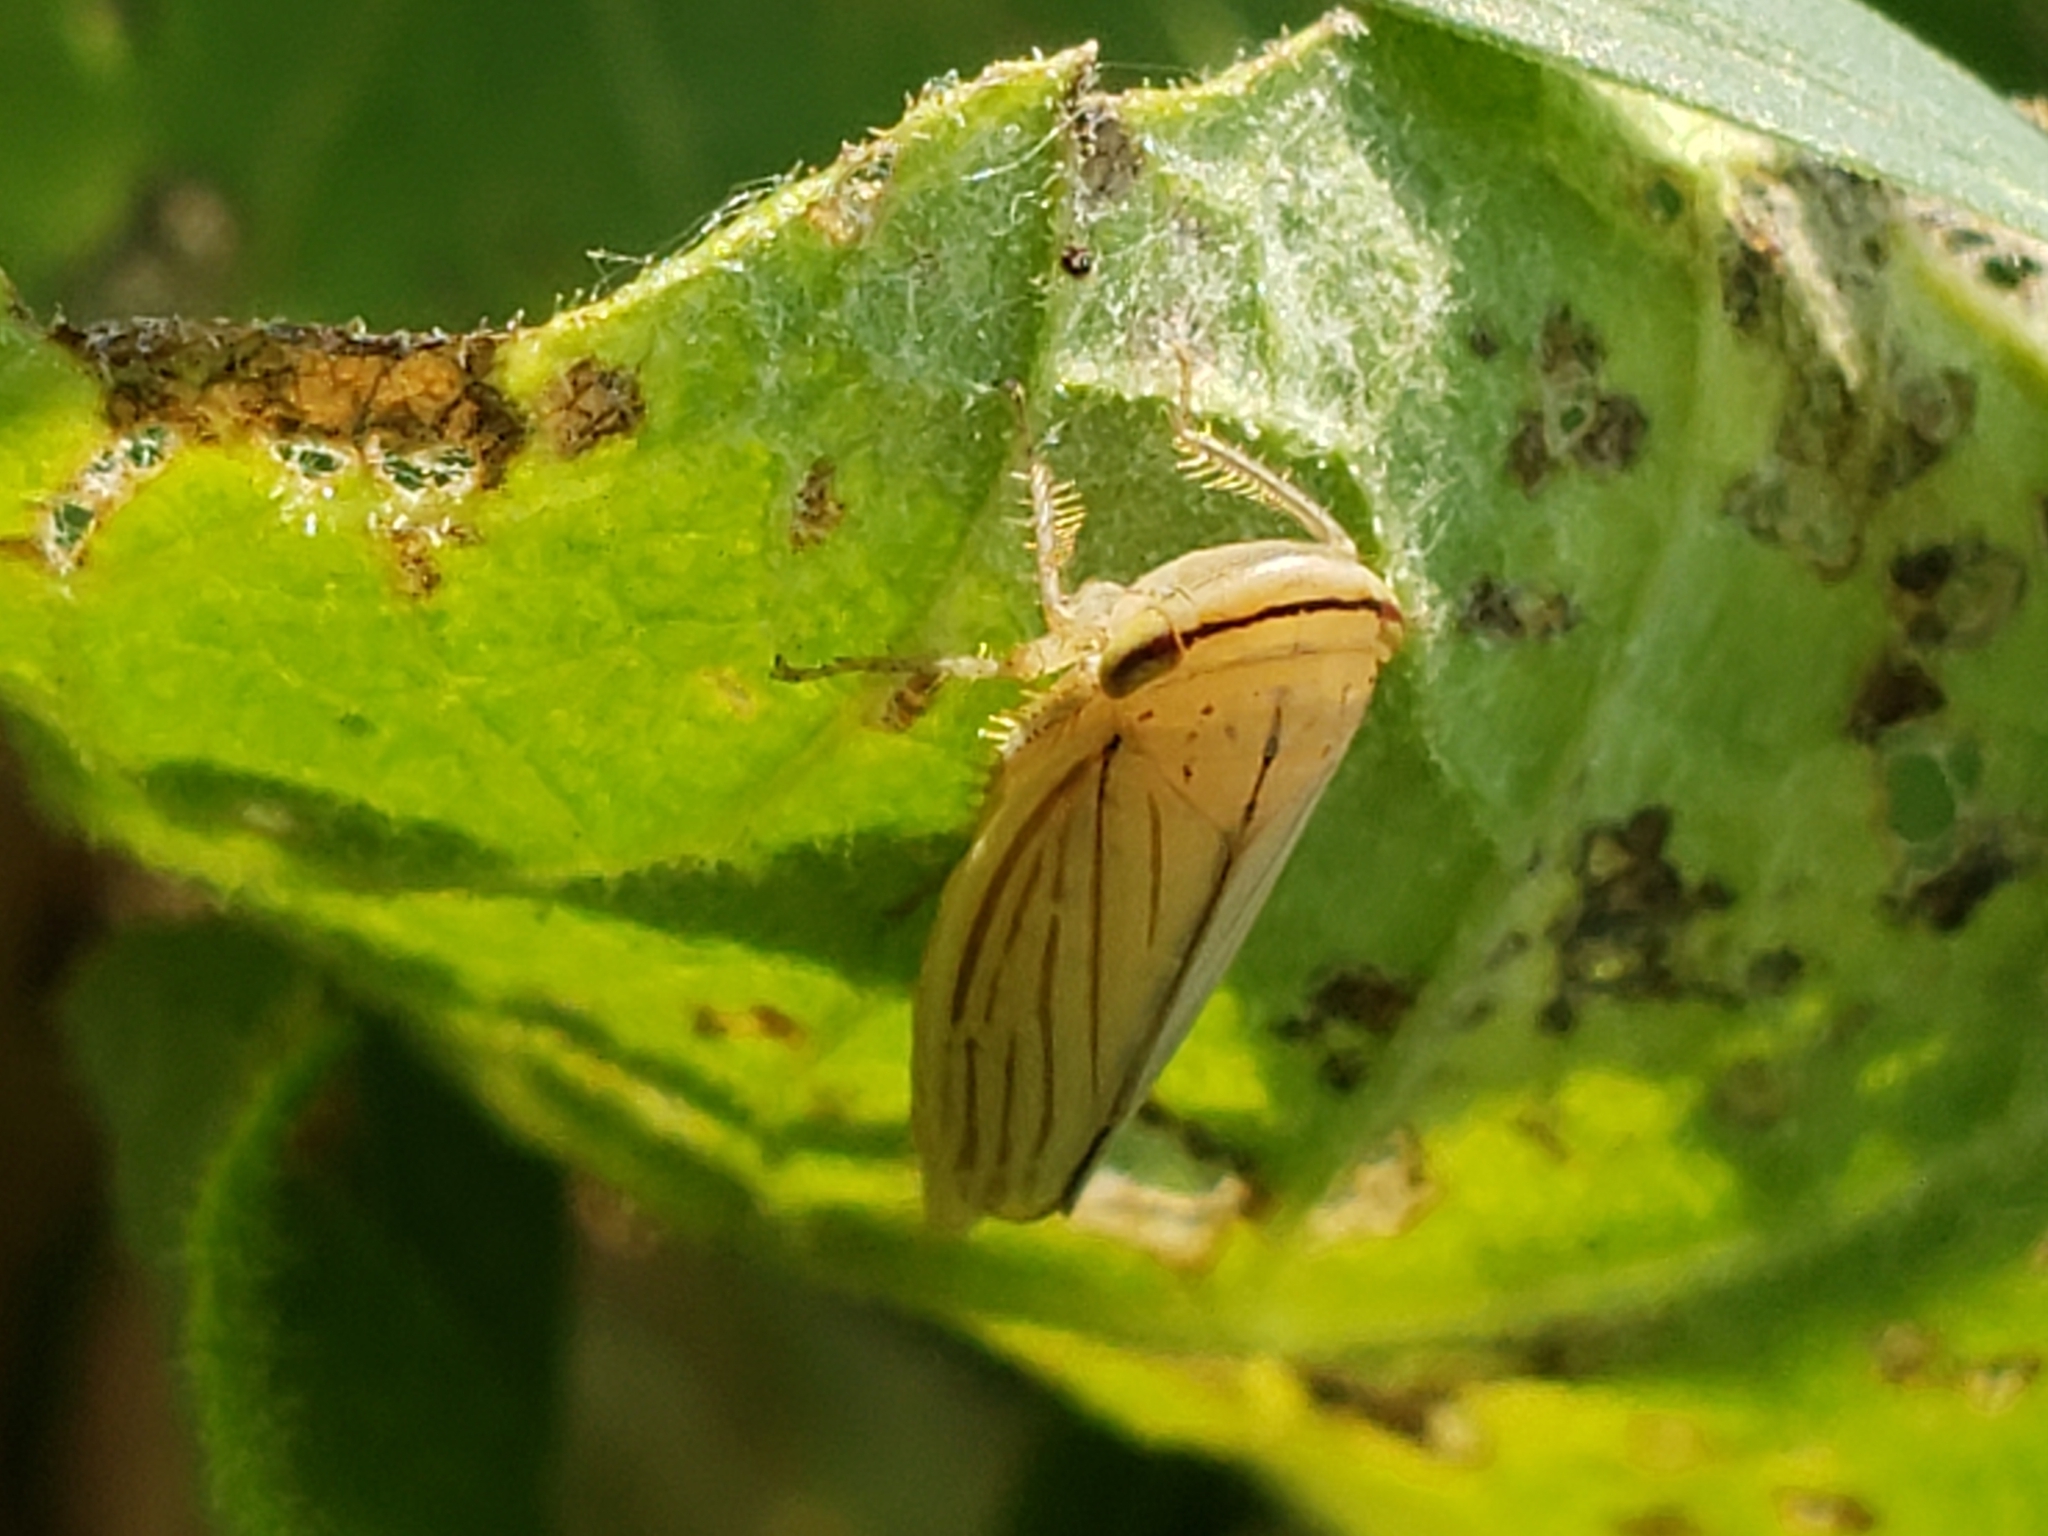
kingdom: Animalia
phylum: Arthropoda
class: Insecta
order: Hemiptera
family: Cicadellidae
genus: Athysanus
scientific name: Athysanus argentarius
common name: Silver leafhopper
